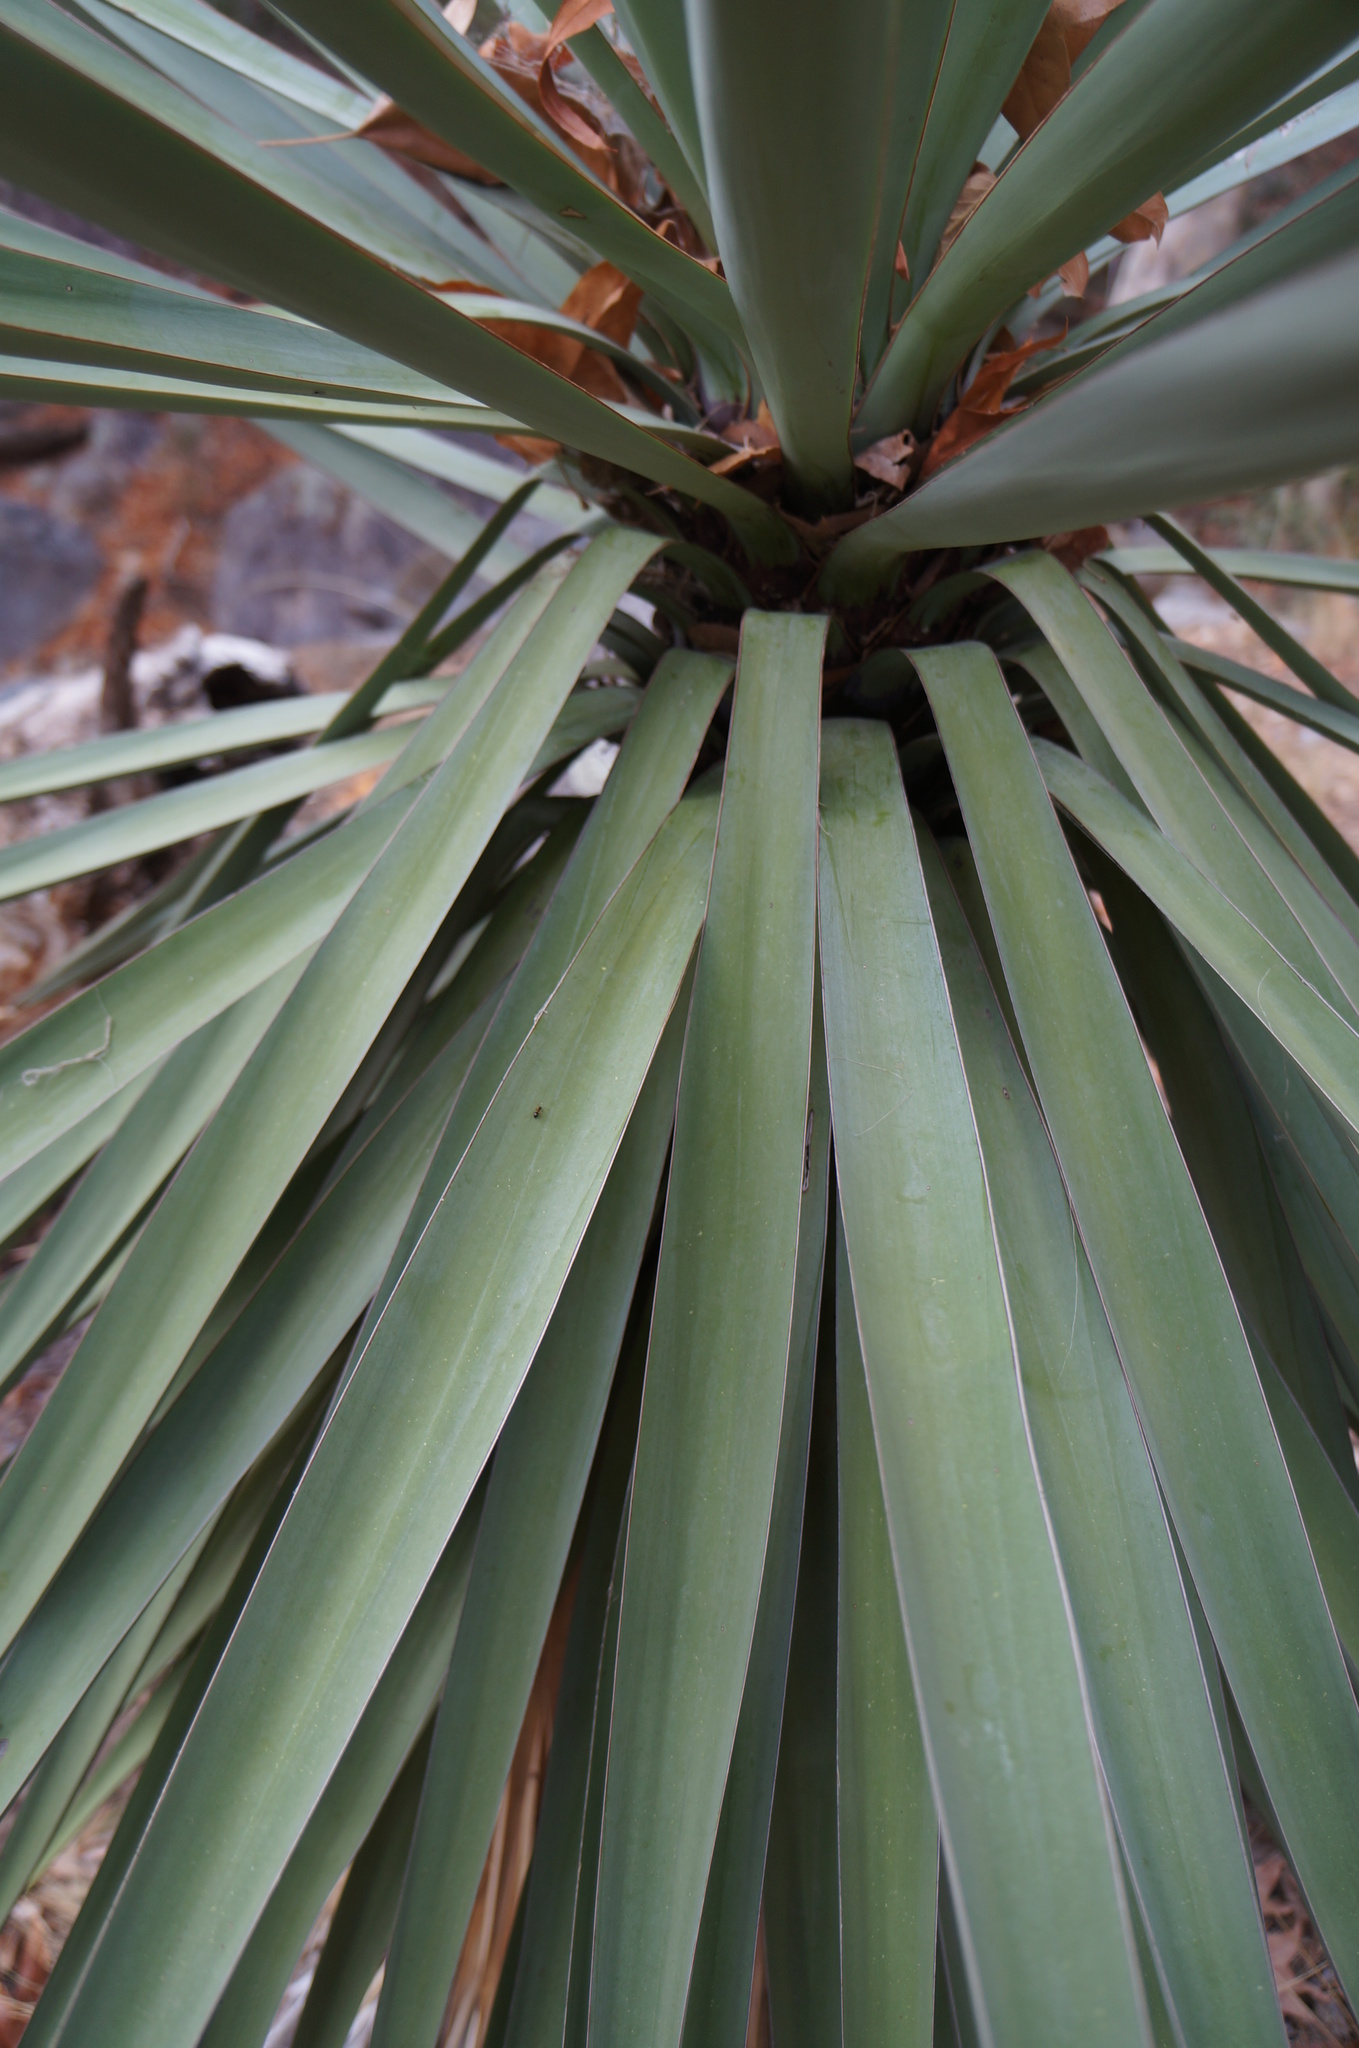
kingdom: Plantae
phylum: Tracheophyta
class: Liliopsida
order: Asparagales
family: Asparagaceae
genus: Yucca
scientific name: Yucca madrensis
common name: Hoary yucca
